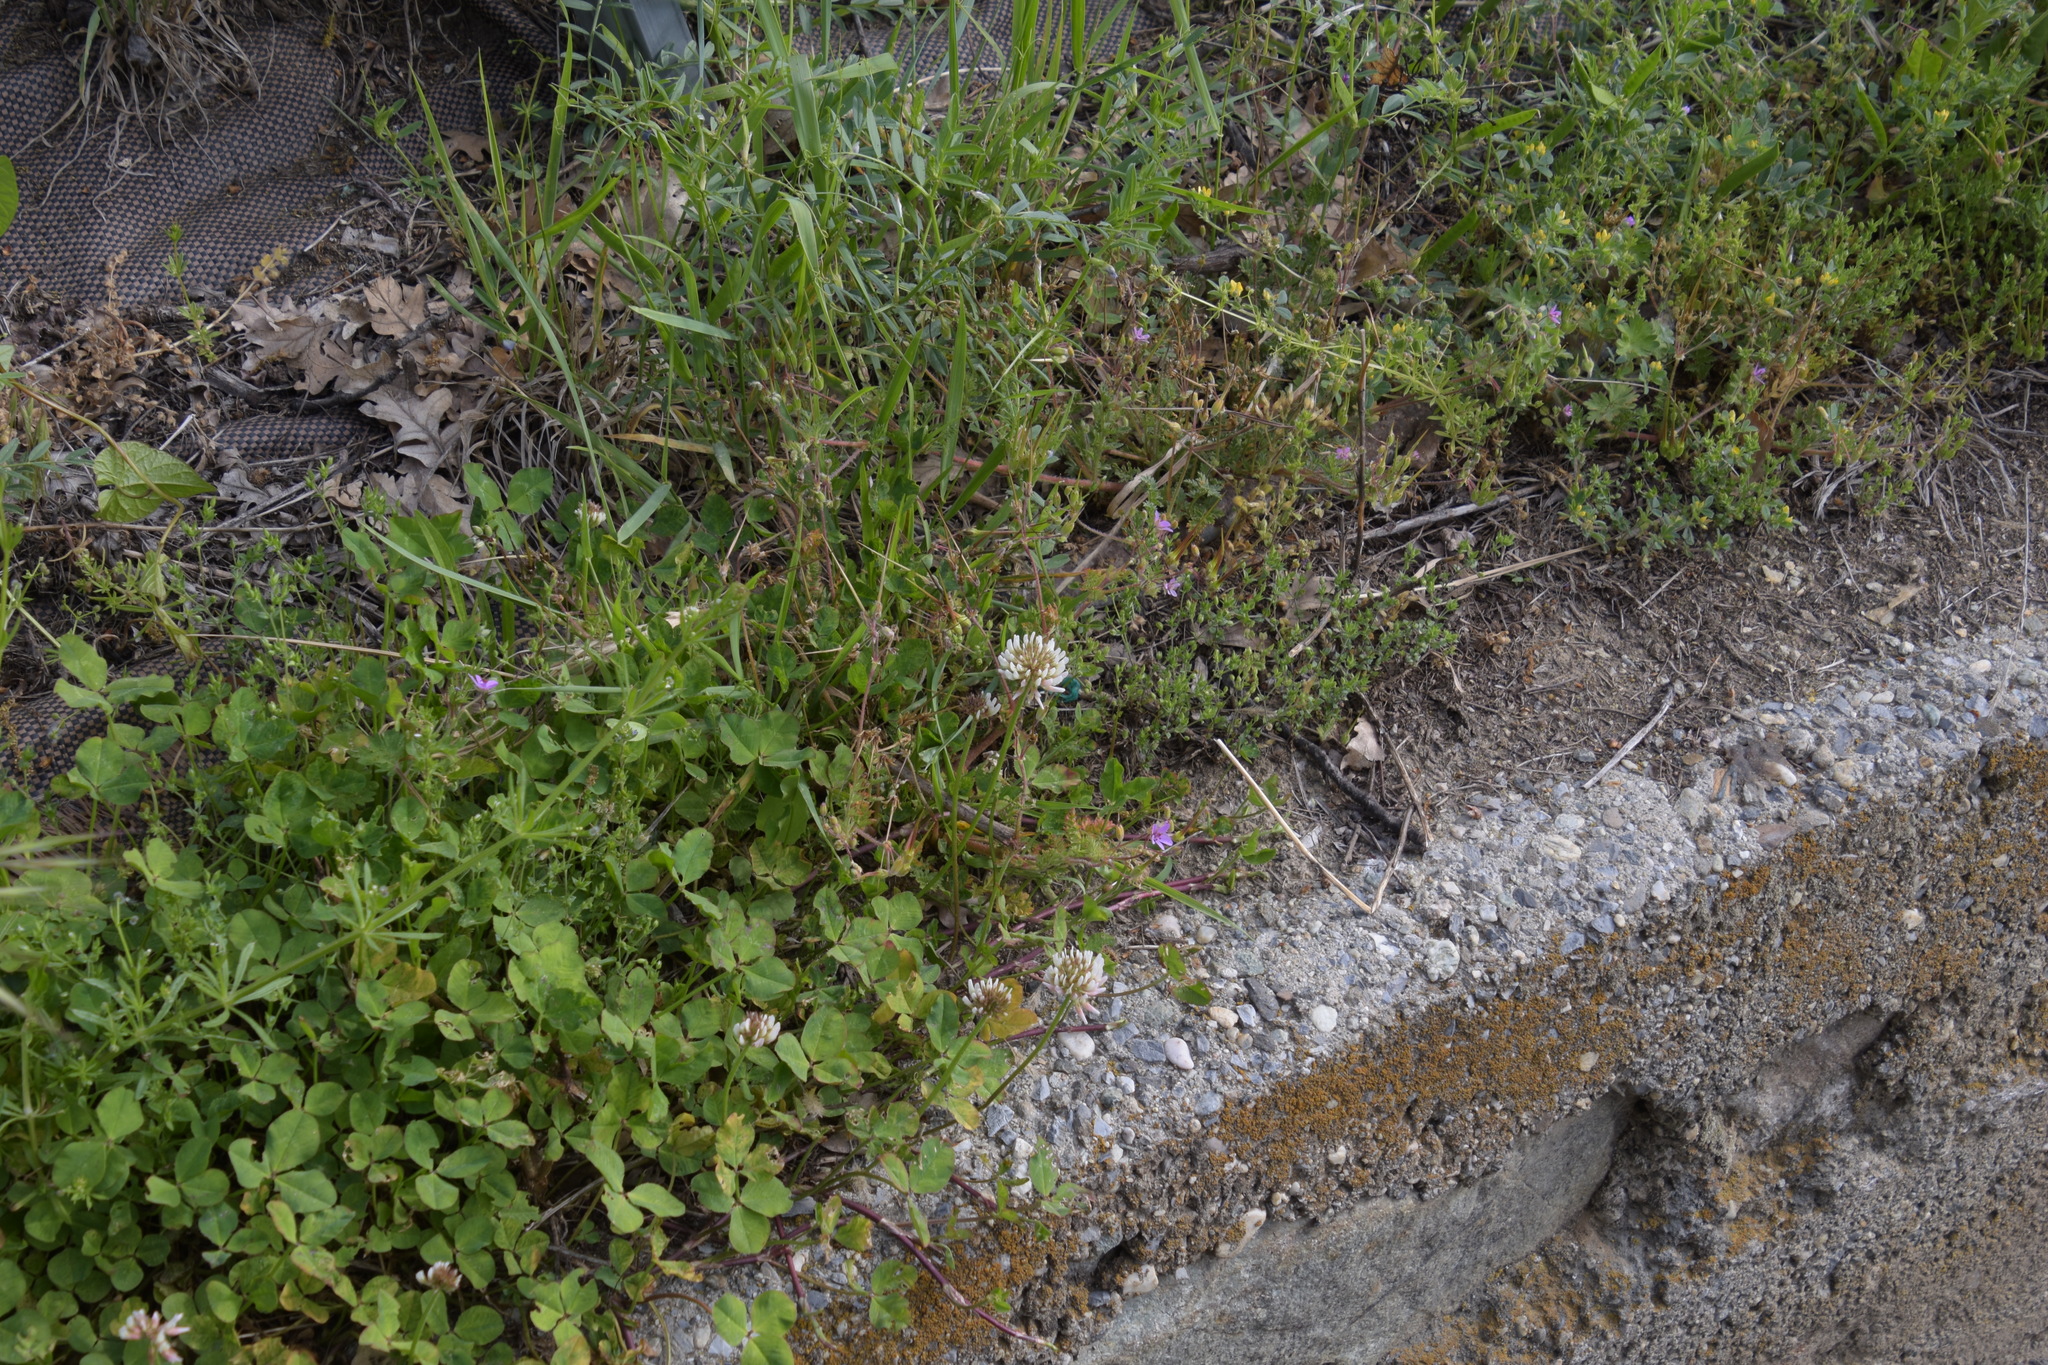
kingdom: Plantae
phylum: Tracheophyta
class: Magnoliopsida
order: Fabales
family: Fabaceae
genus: Trifolium
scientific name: Trifolium repens
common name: White clover
